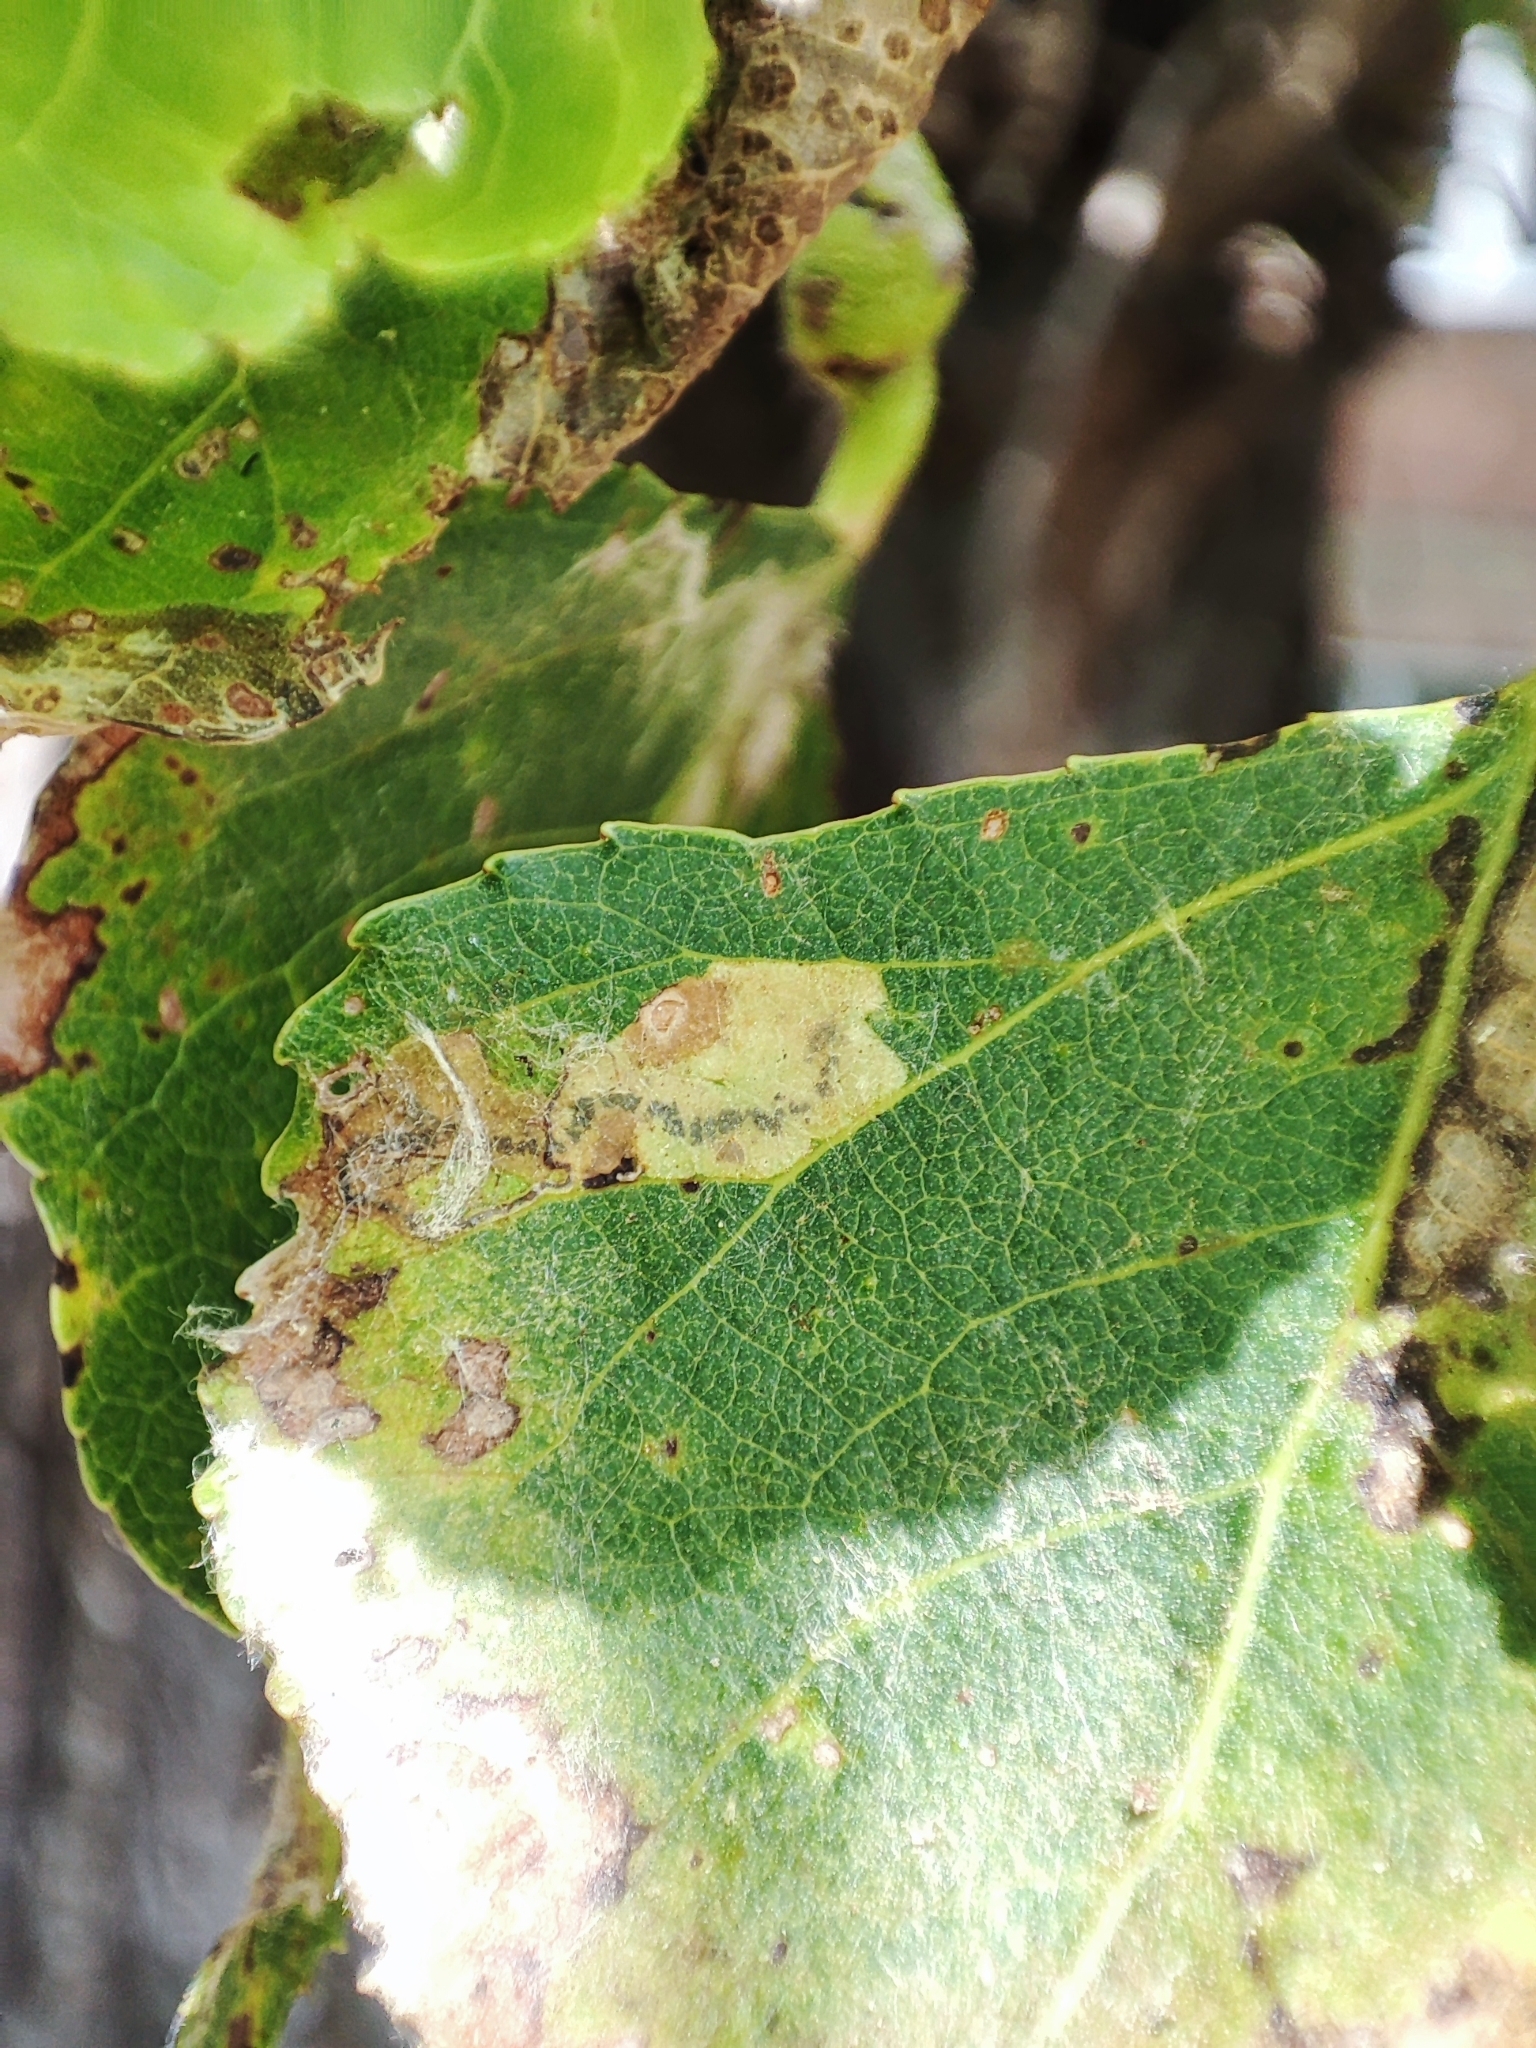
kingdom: Animalia
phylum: Arthropoda
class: Insecta
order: Lepidoptera
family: Nepticulidae
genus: Stigmella
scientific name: Stigmella trimaculella
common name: Black-poplar pigmy
